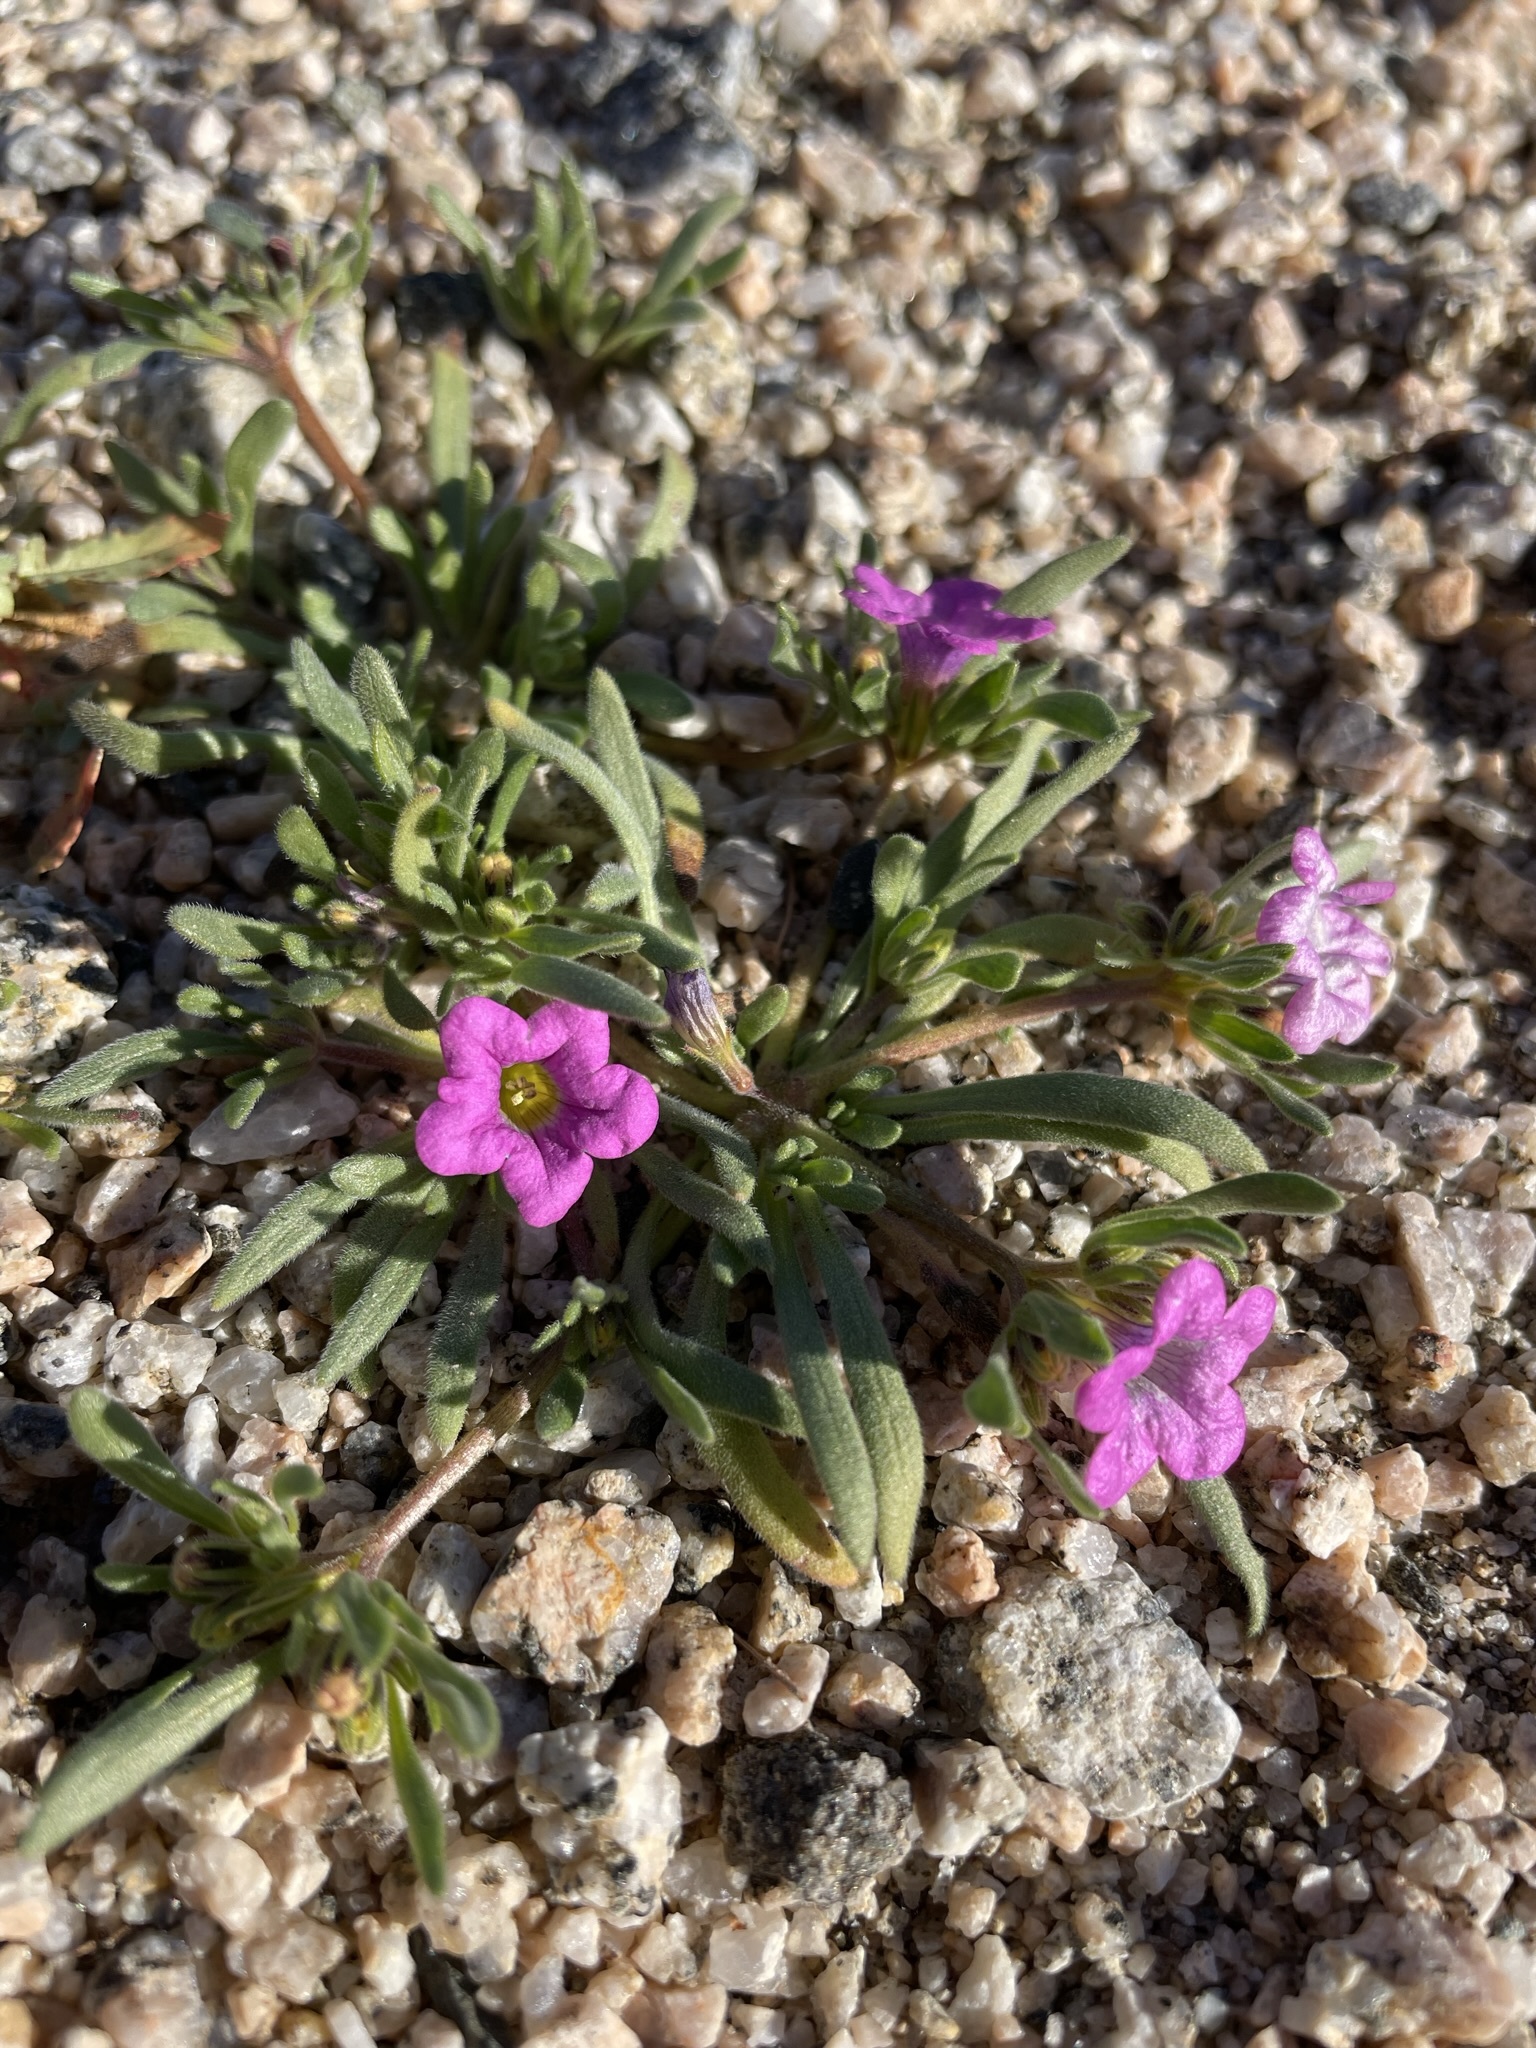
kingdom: Plantae
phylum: Tracheophyta
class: Magnoliopsida
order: Boraginales
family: Namaceae
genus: Nama
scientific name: Nama demissa
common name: Leafy nama
